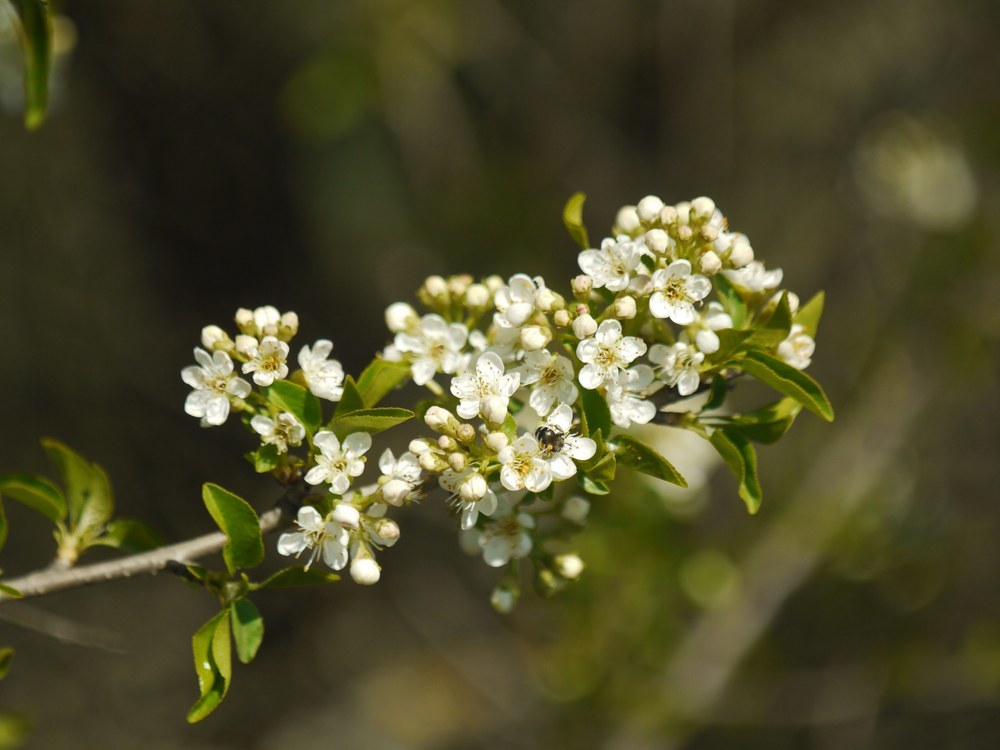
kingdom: Plantae
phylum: Tracheophyta
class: Magnoliopsida
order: Rosales
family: Rosaceae
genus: Prunus
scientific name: Prunus mahaleb
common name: Mahaleb cherry
